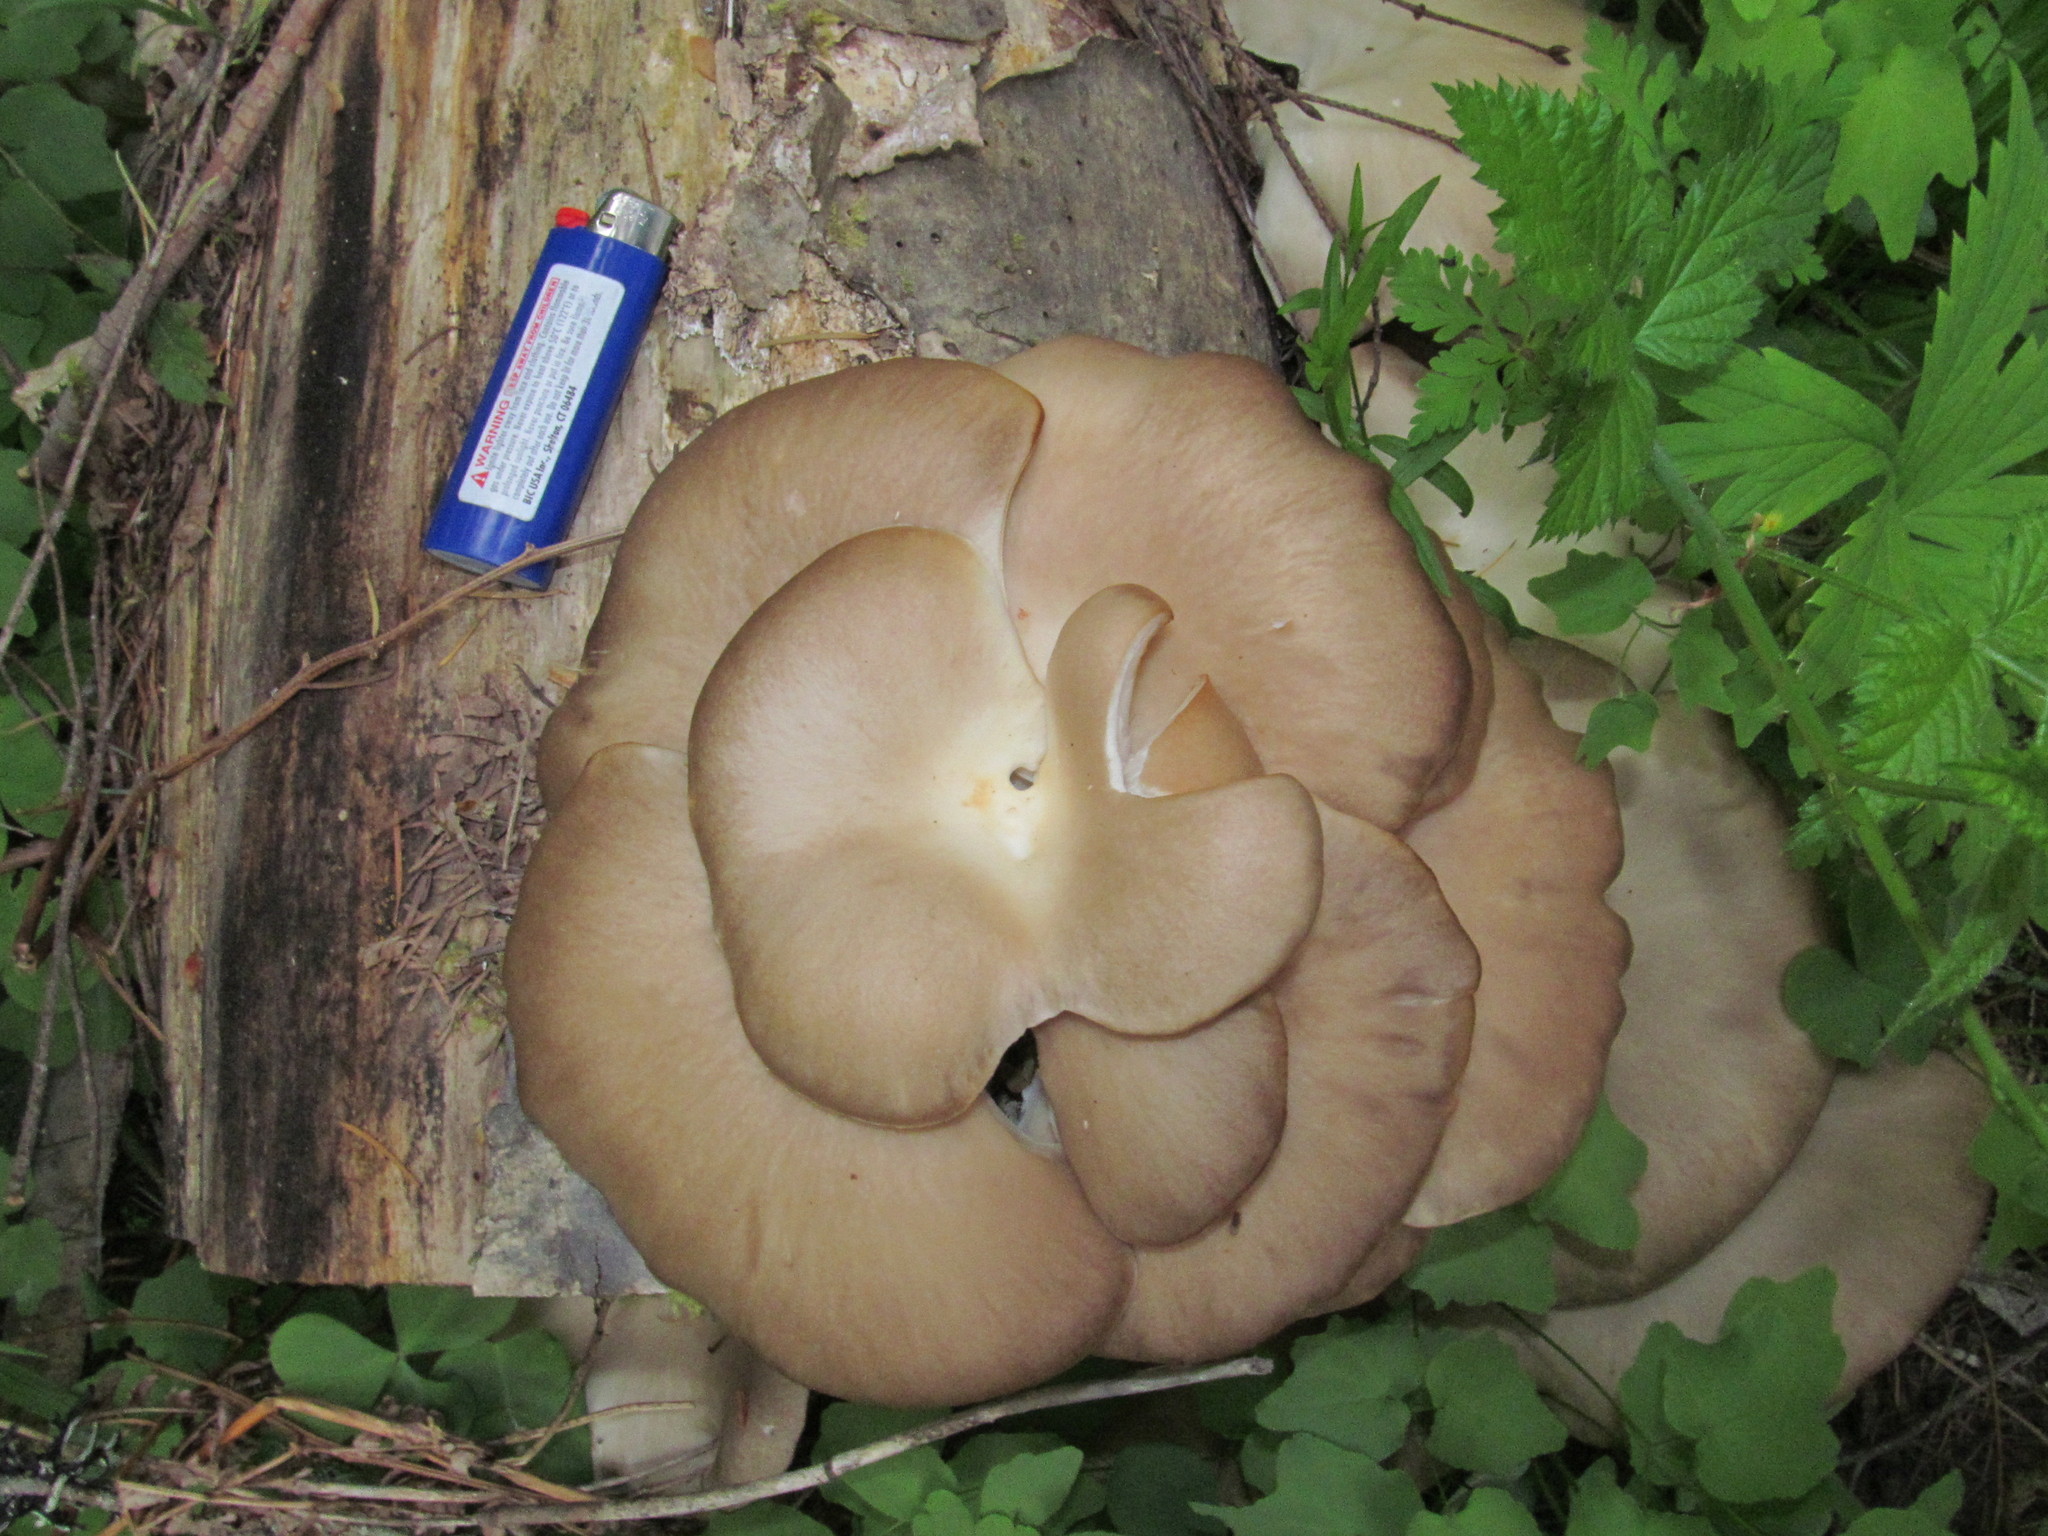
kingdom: Fungi
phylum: Basidiomycota
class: Agaricomycetes
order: Agaricales
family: Pleurotaceae
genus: Pleurotus
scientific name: Pleurotus ostreatus
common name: Oyster mushroom
